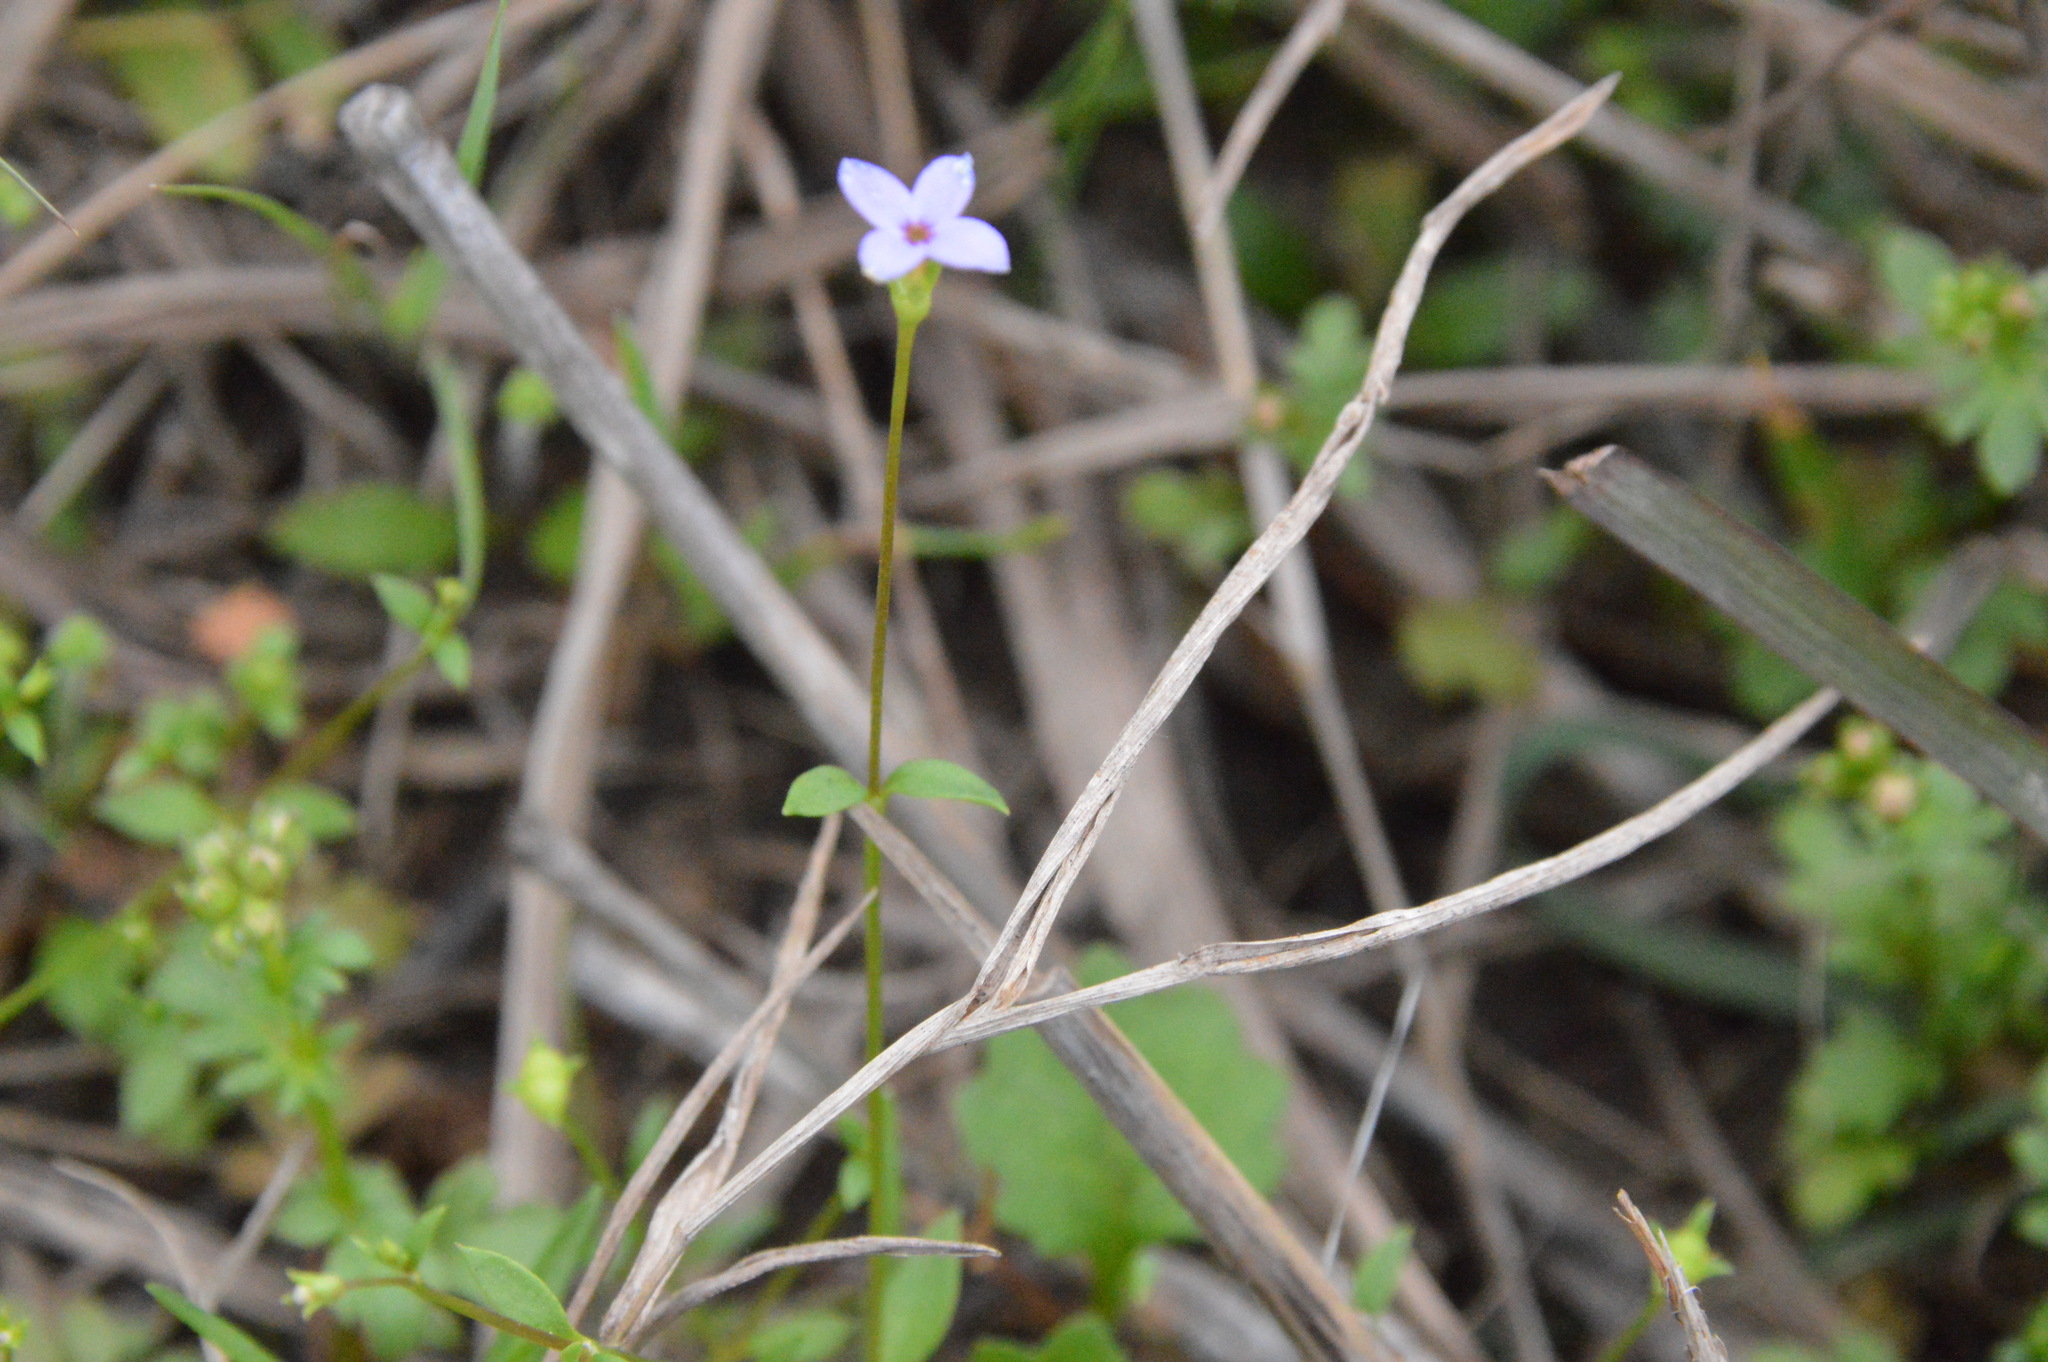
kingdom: Plantae
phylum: Tracheophyta
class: Magnoliopsida
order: Gentianales
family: Rubiaceae
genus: Houstonia
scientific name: Houstonia pusilla
